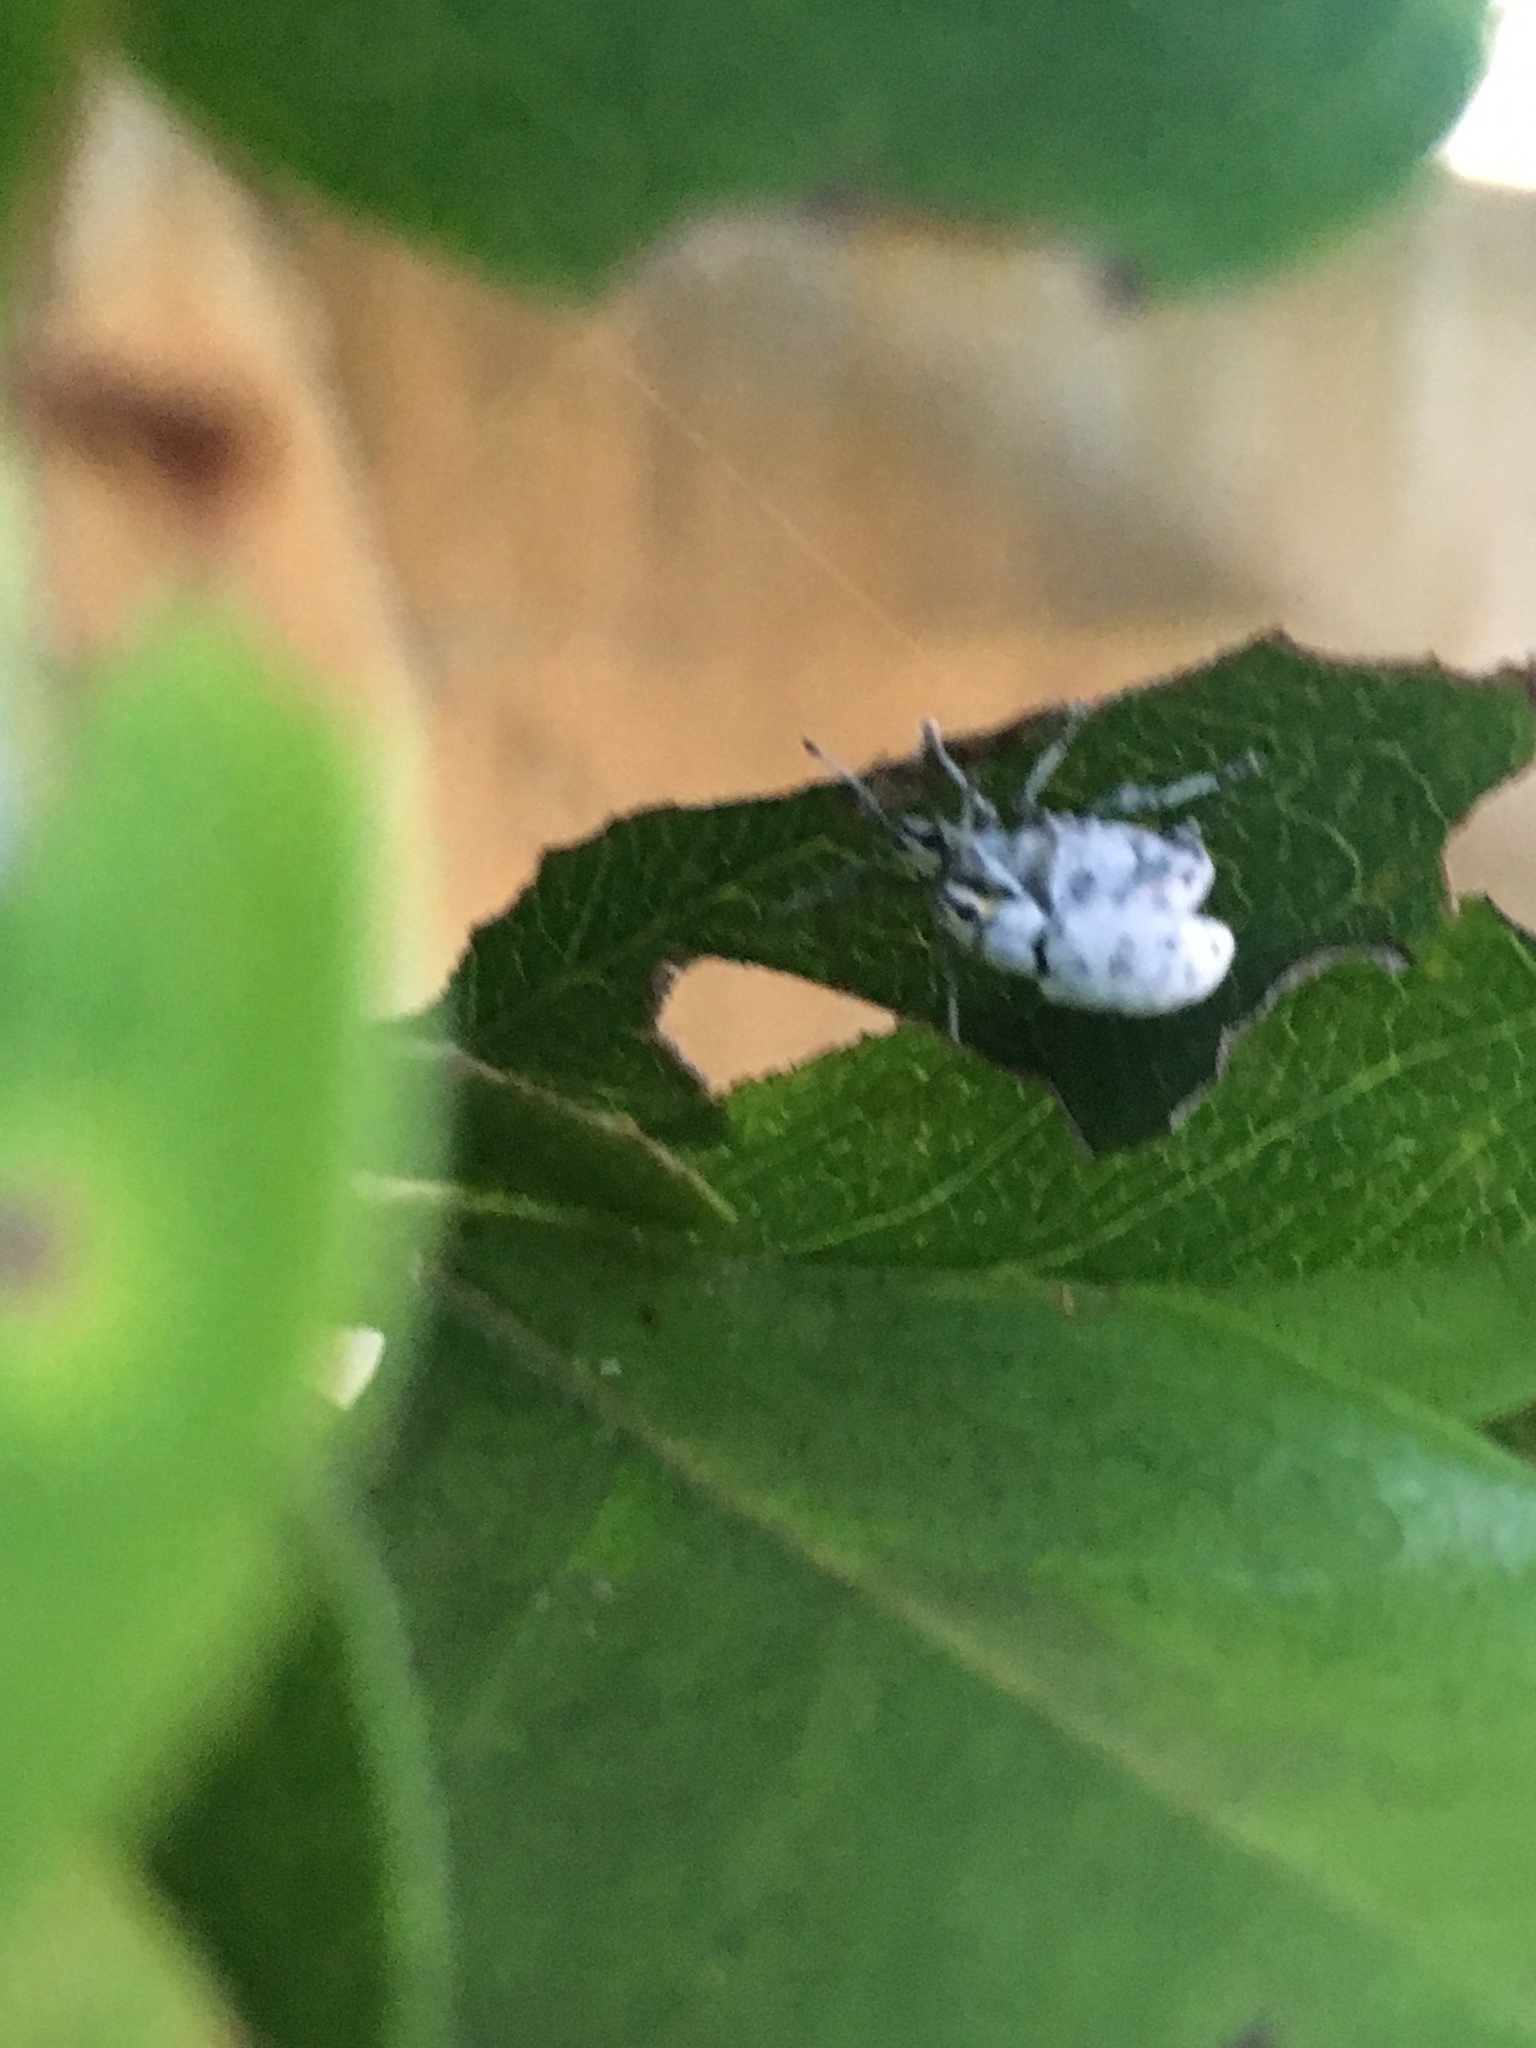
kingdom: Animalia
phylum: Arthropoda
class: Insecta
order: Coleoptera
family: Curculionidae
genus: Myllocerus
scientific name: Myllocerus undecimpustulatus
